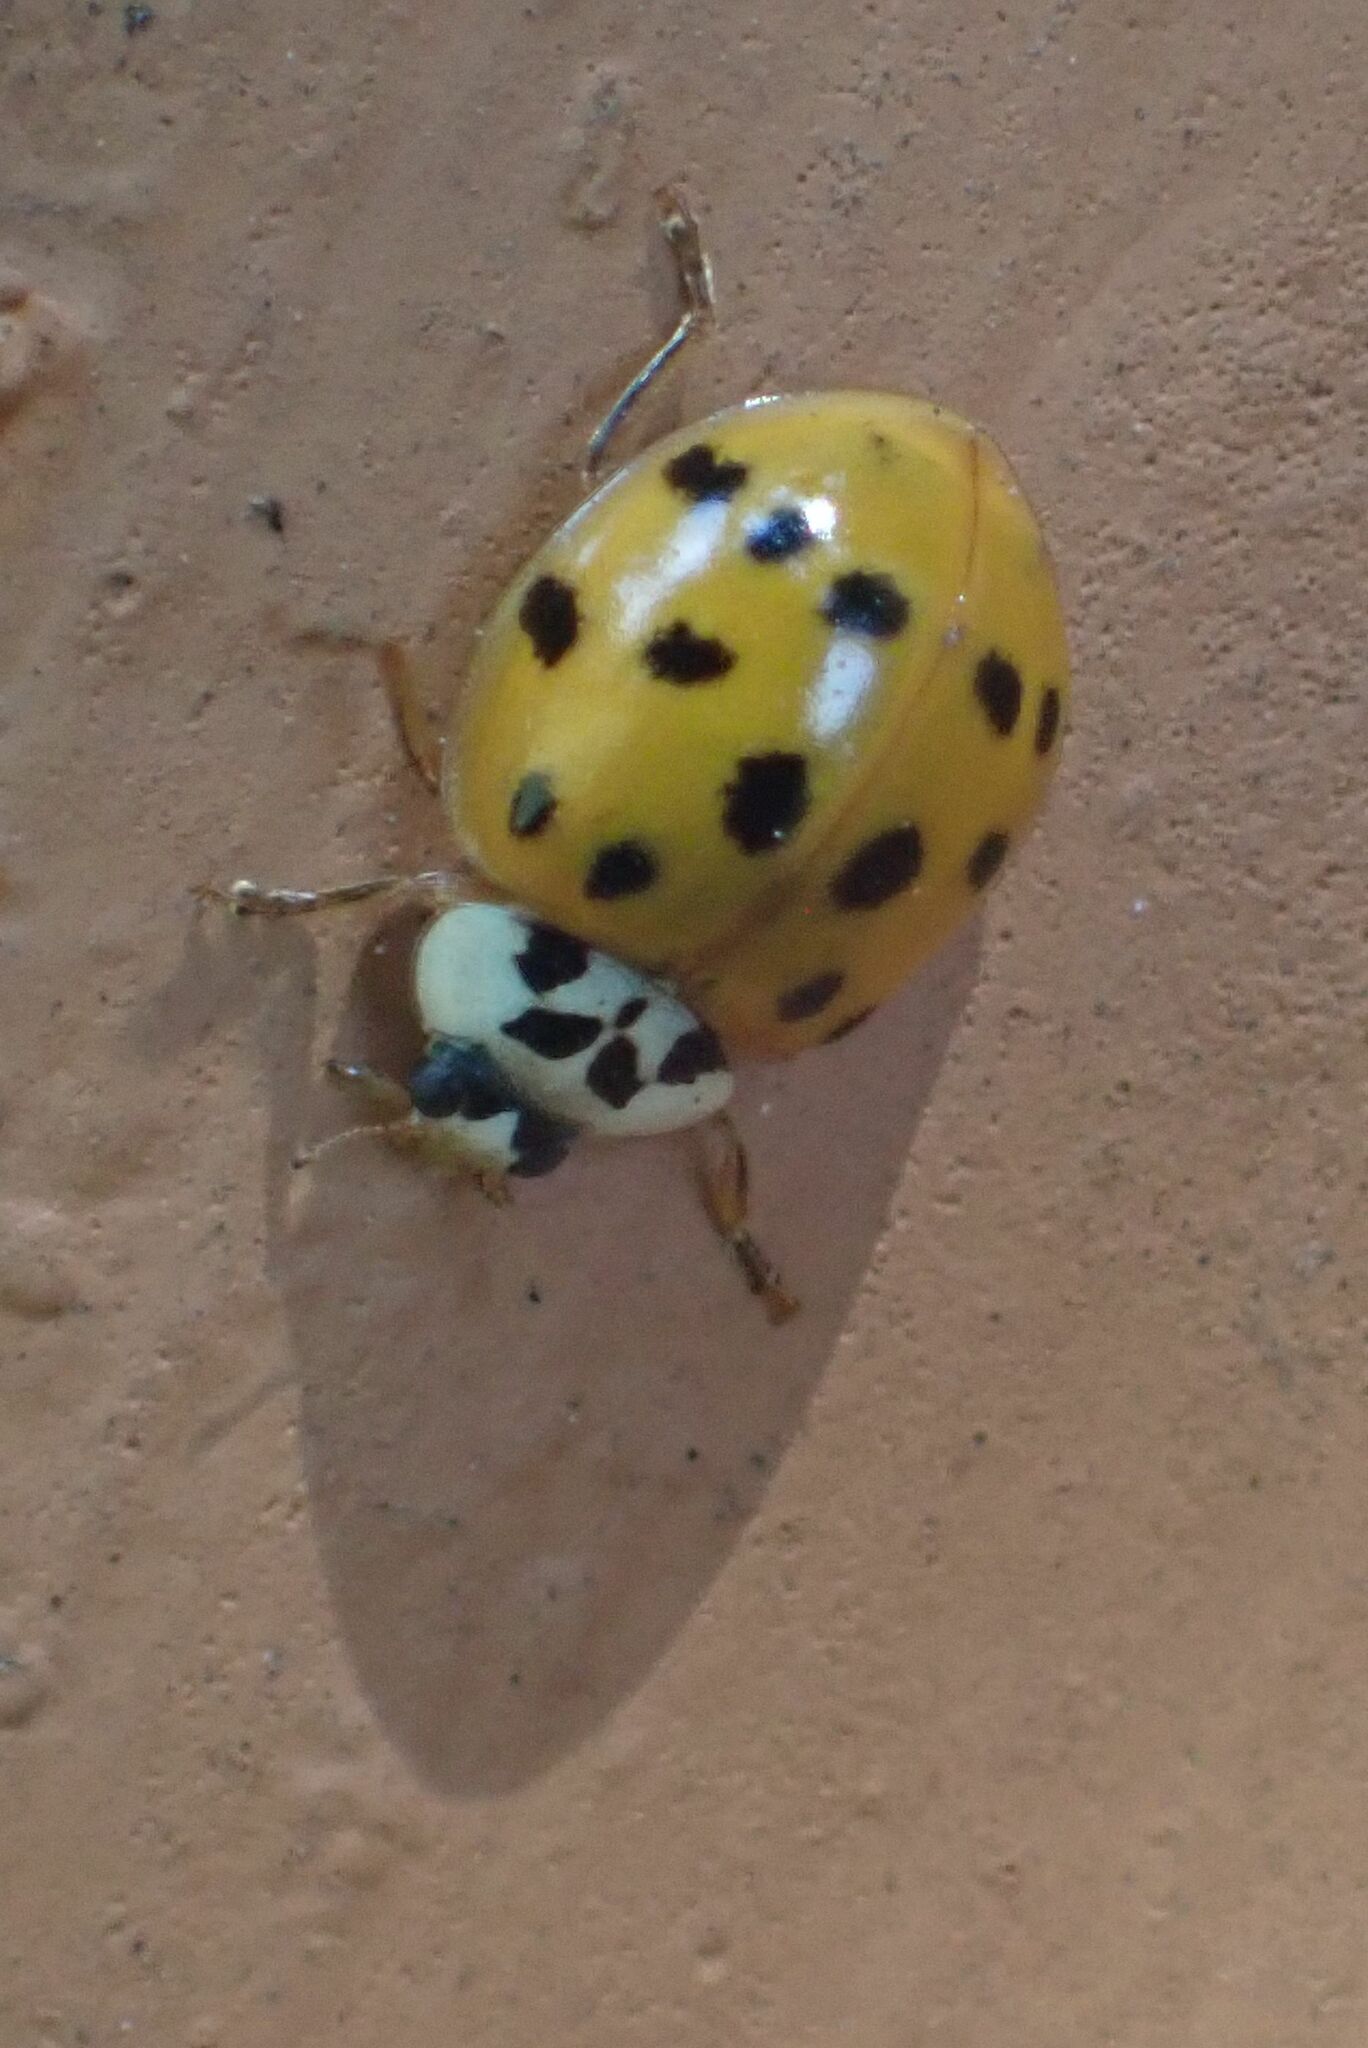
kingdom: Animalia
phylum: Arthropoda
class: Insecta
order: Coleoptera
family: Coccinellidae
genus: Harmonia
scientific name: Harmonia axyridis
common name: Harlequin ladybird
